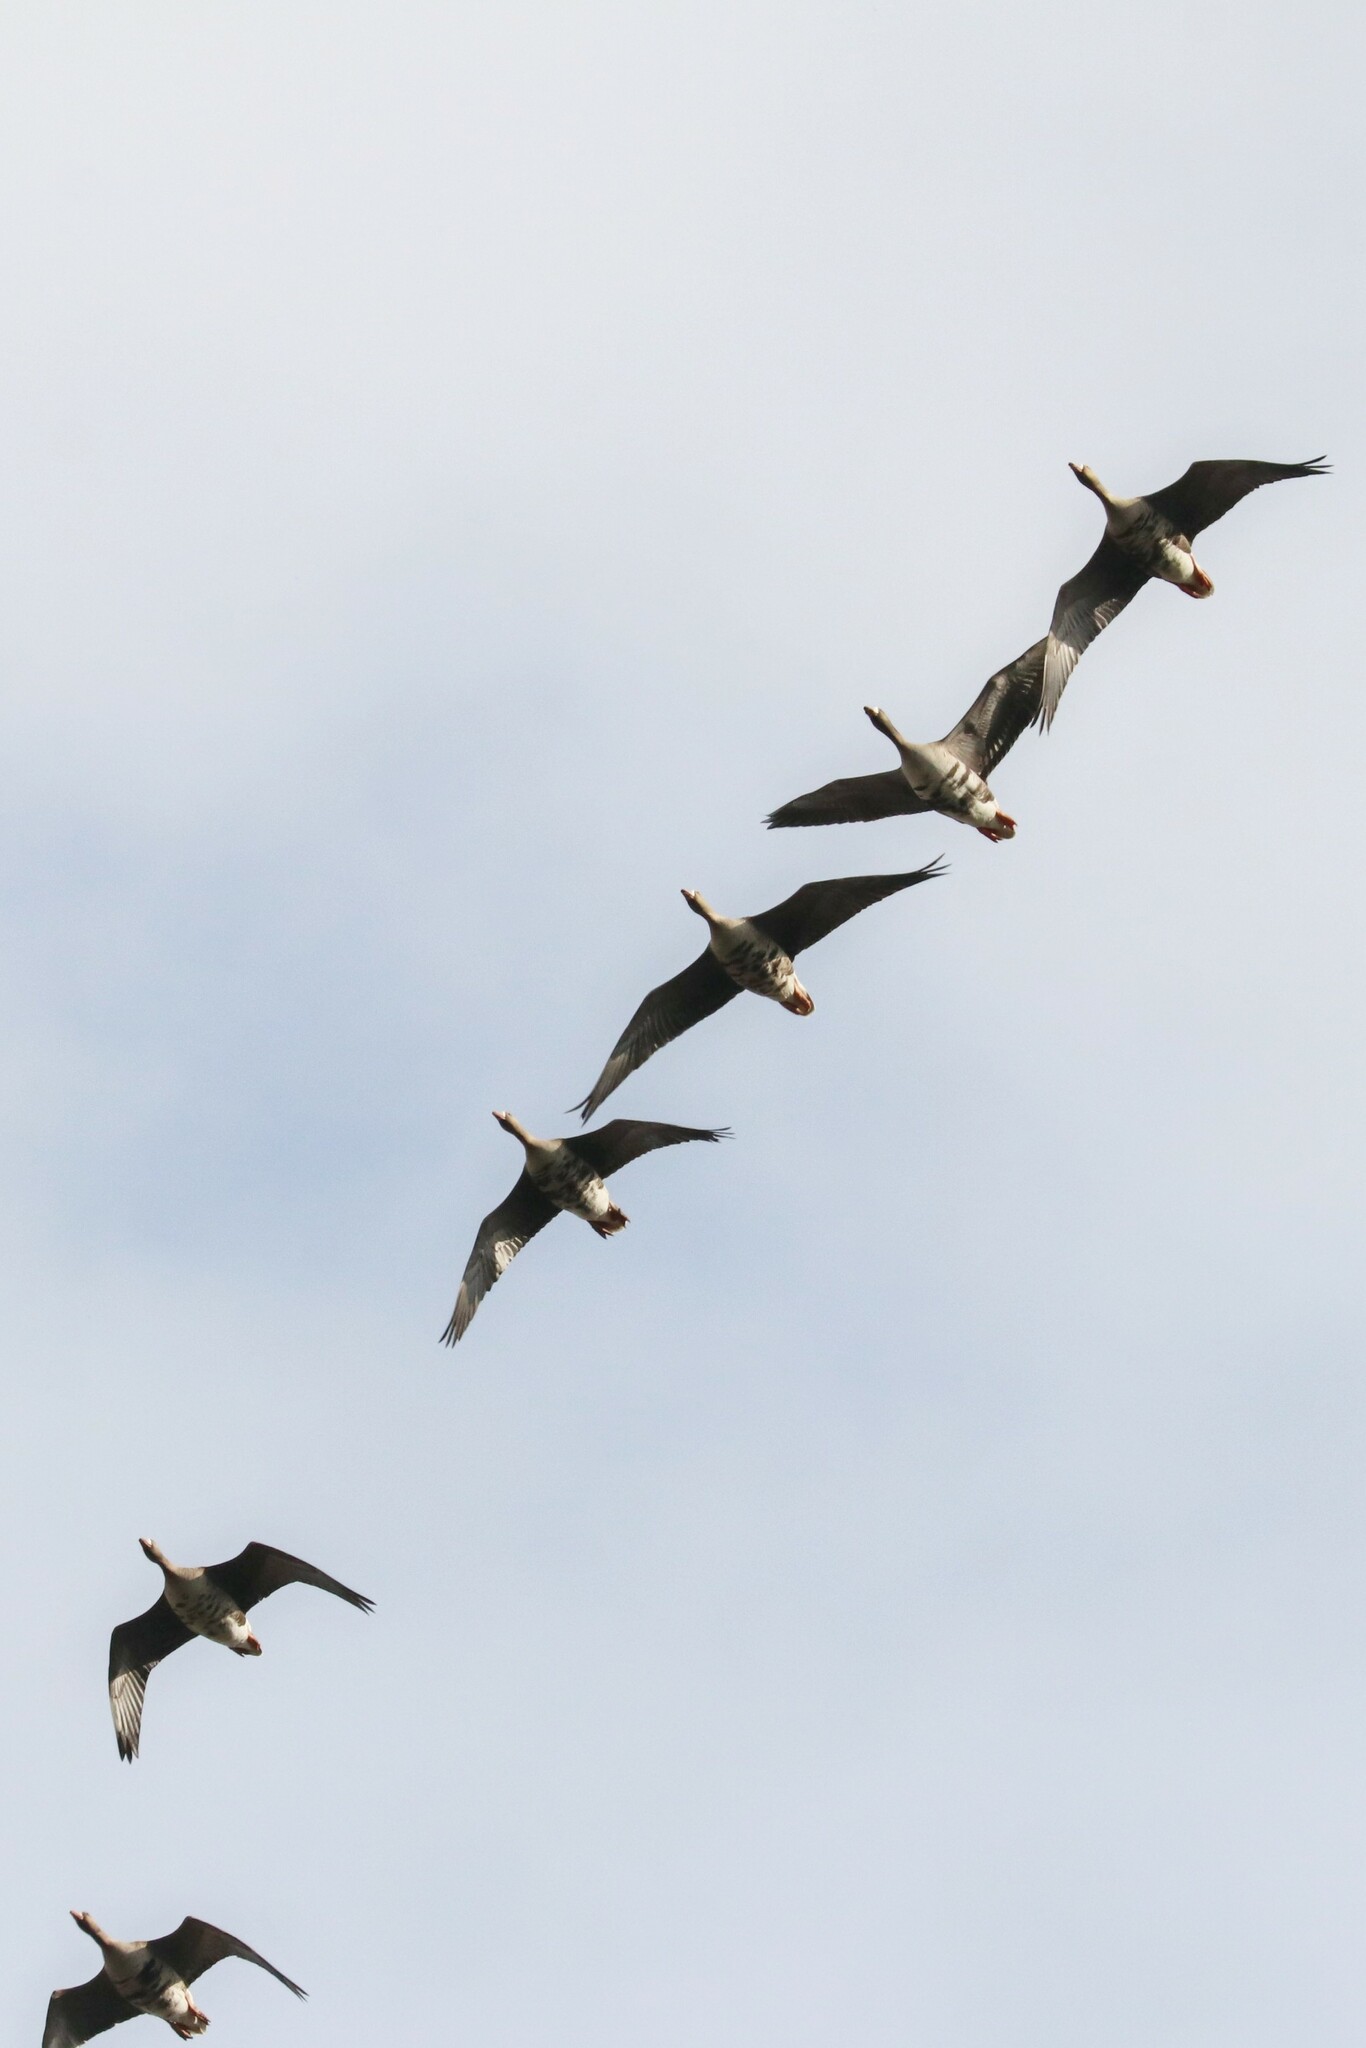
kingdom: Animalia
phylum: Chordata
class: Aves
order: Anseriformes
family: Anatidae
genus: Anser
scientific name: Anser albifrons
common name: Greater white-fronted goose
